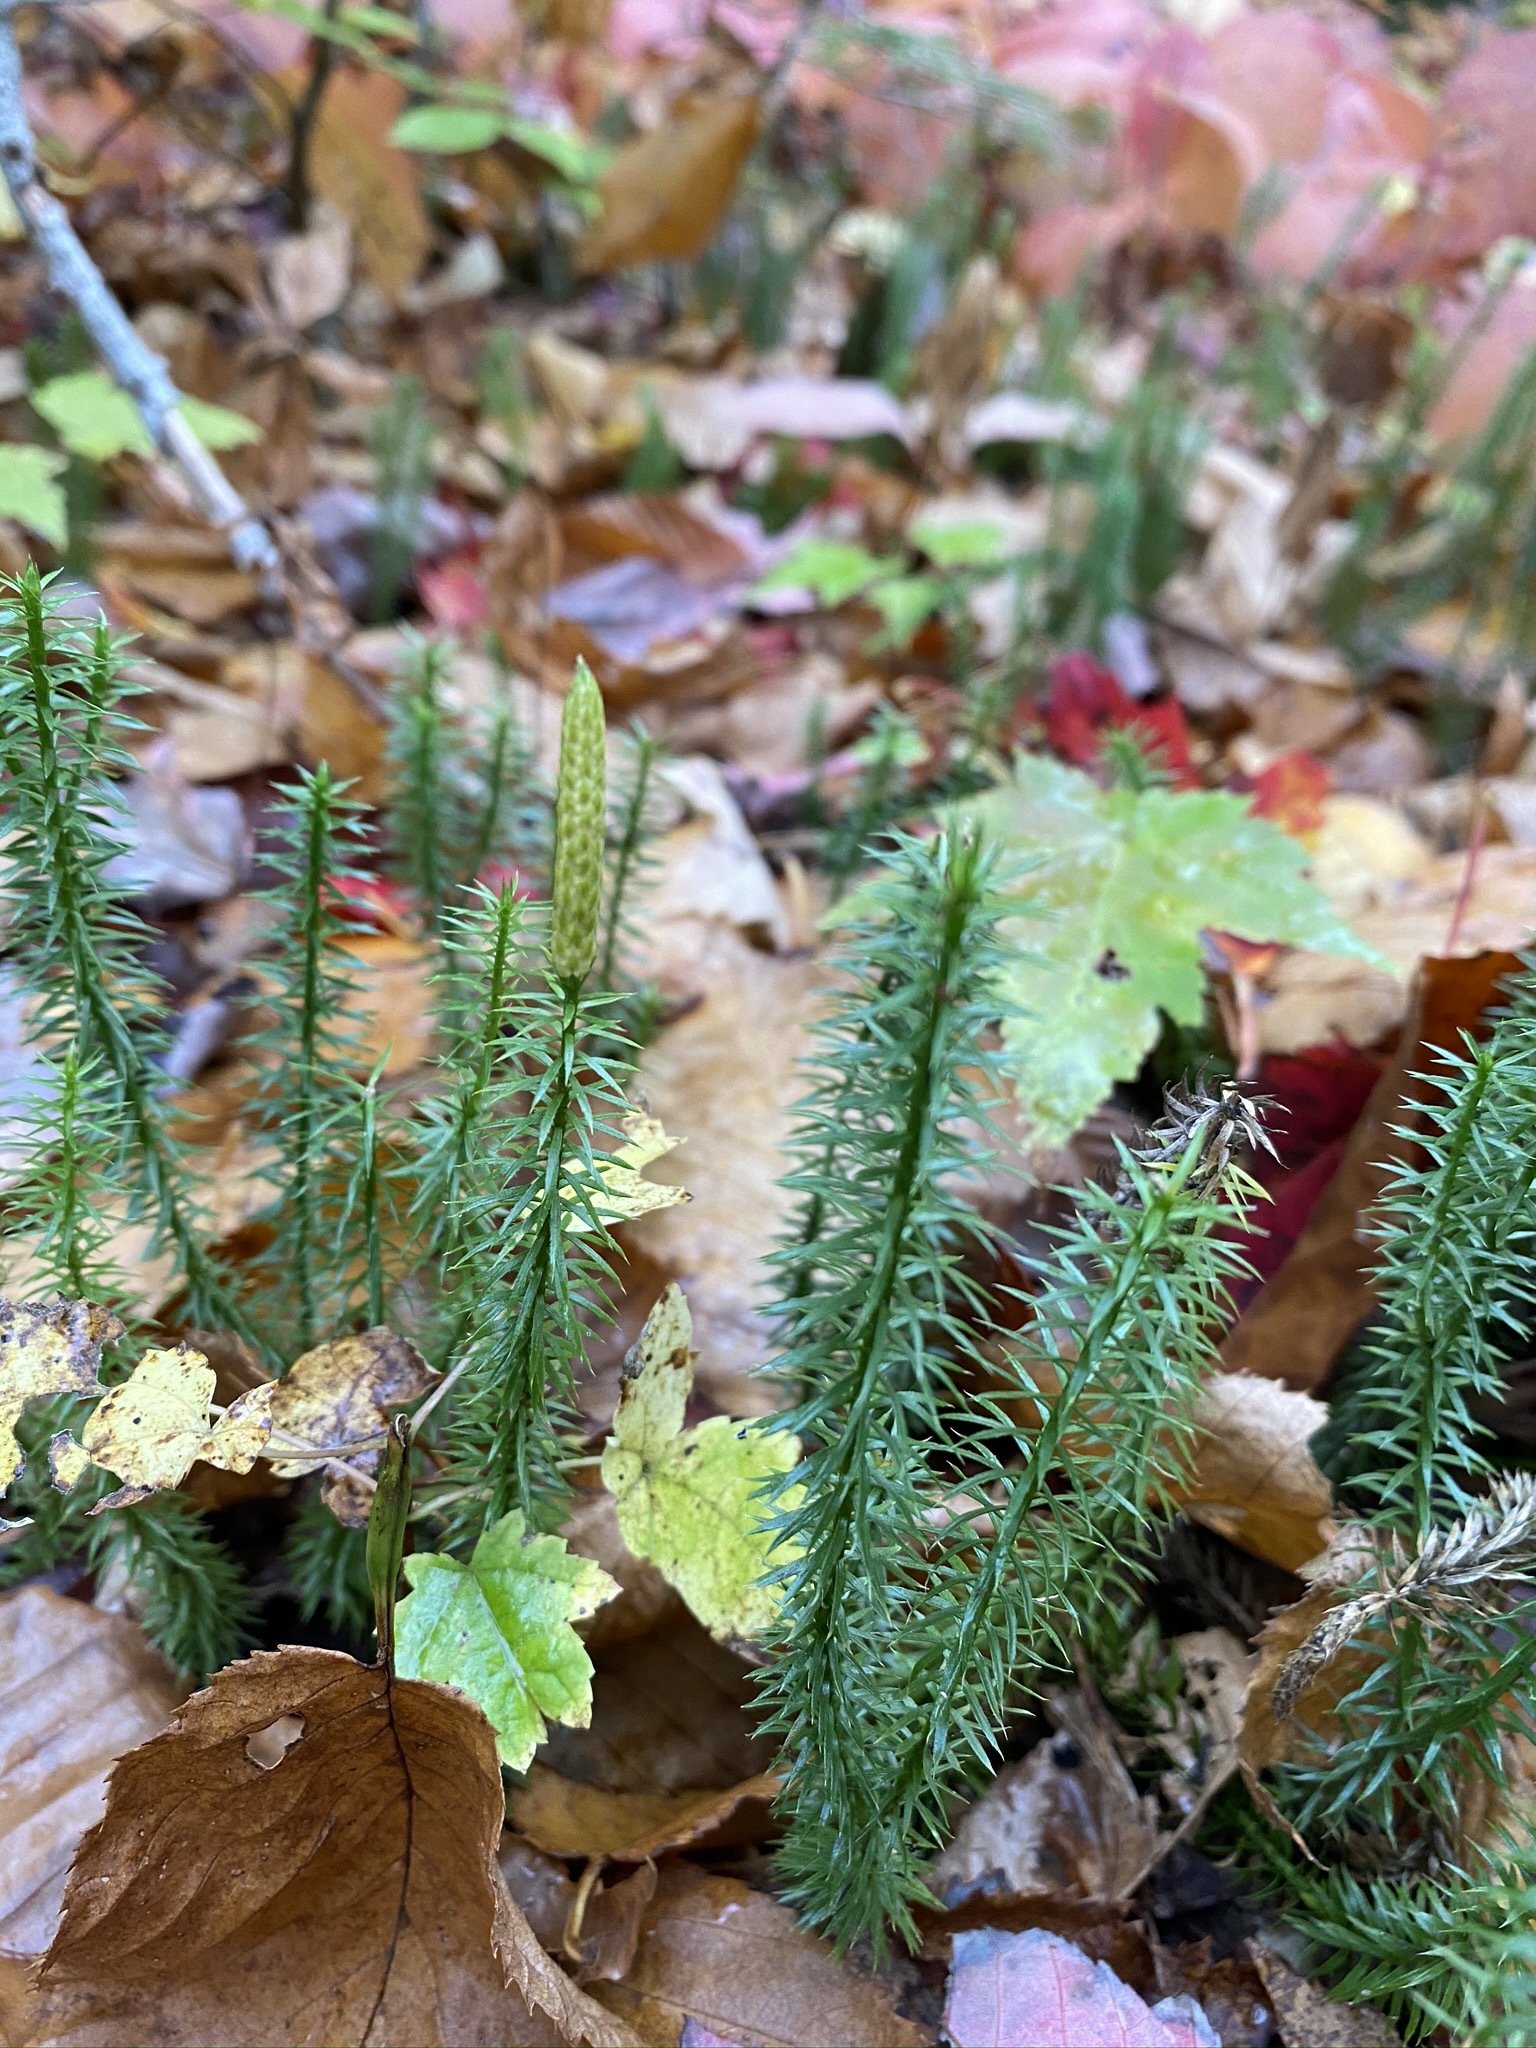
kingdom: Plantae
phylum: Tracheophyta
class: Lycopodiopsida
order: Lycopodiales
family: Lycopodiaceae
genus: Spinulum
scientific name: Spinulum annotinum
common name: Interrupted club-moss
